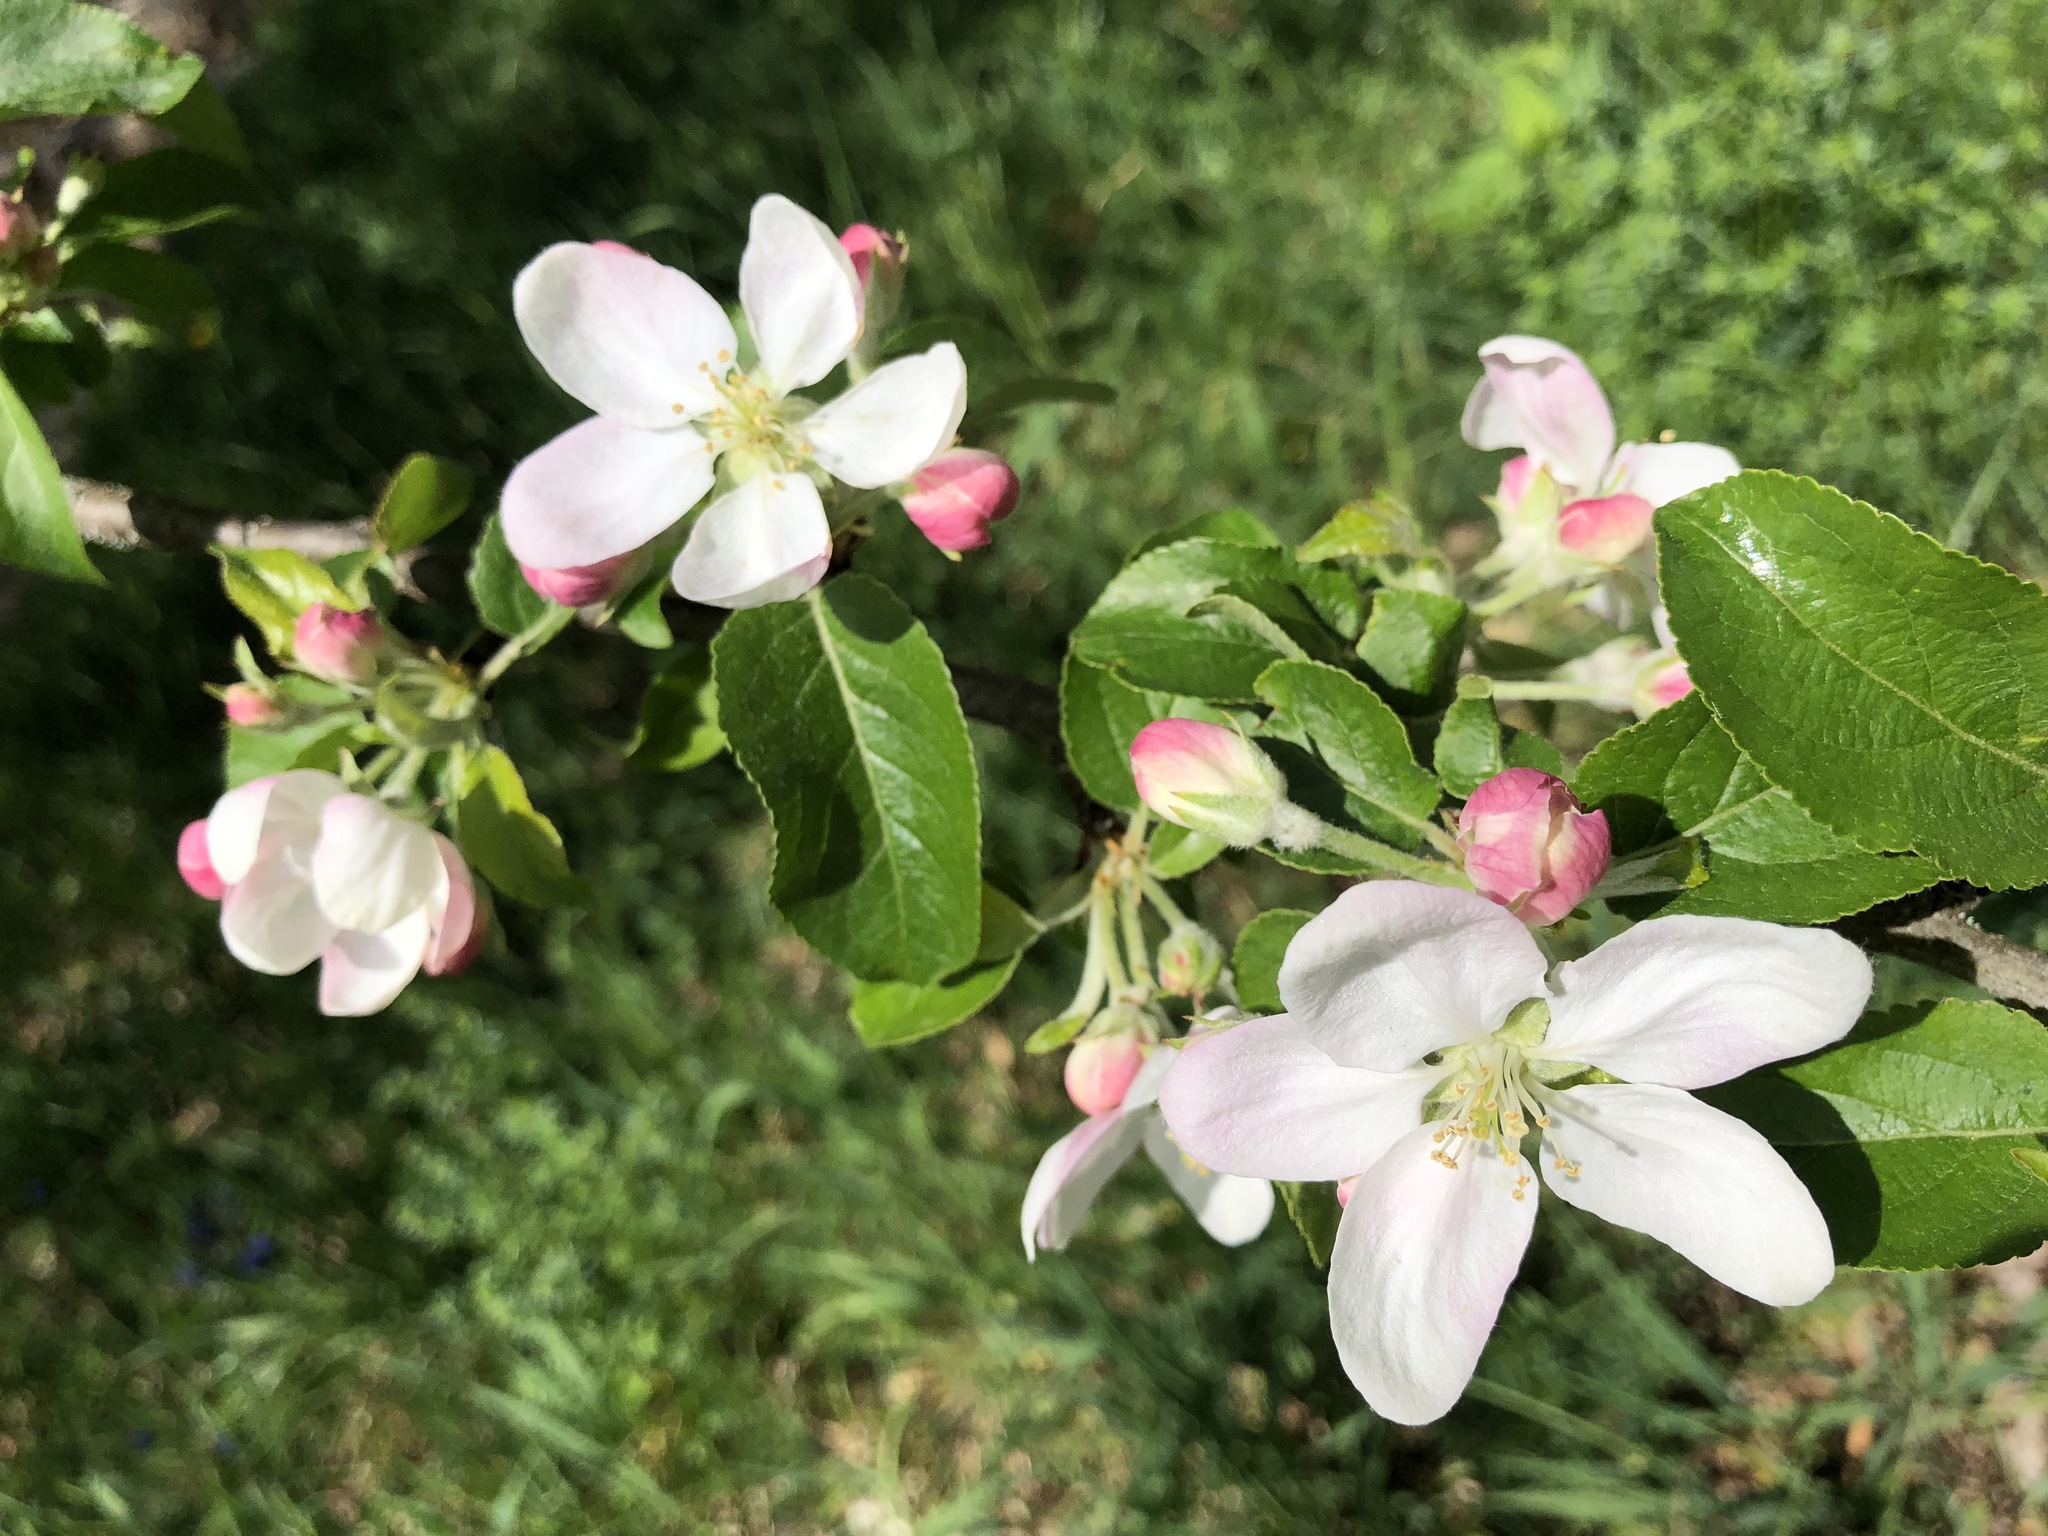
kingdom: Plantae
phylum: Tracheophyta
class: Magnoliopsida
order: Rosales
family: Rosaceae
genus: Malus
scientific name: Malus domestica
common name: Apple
